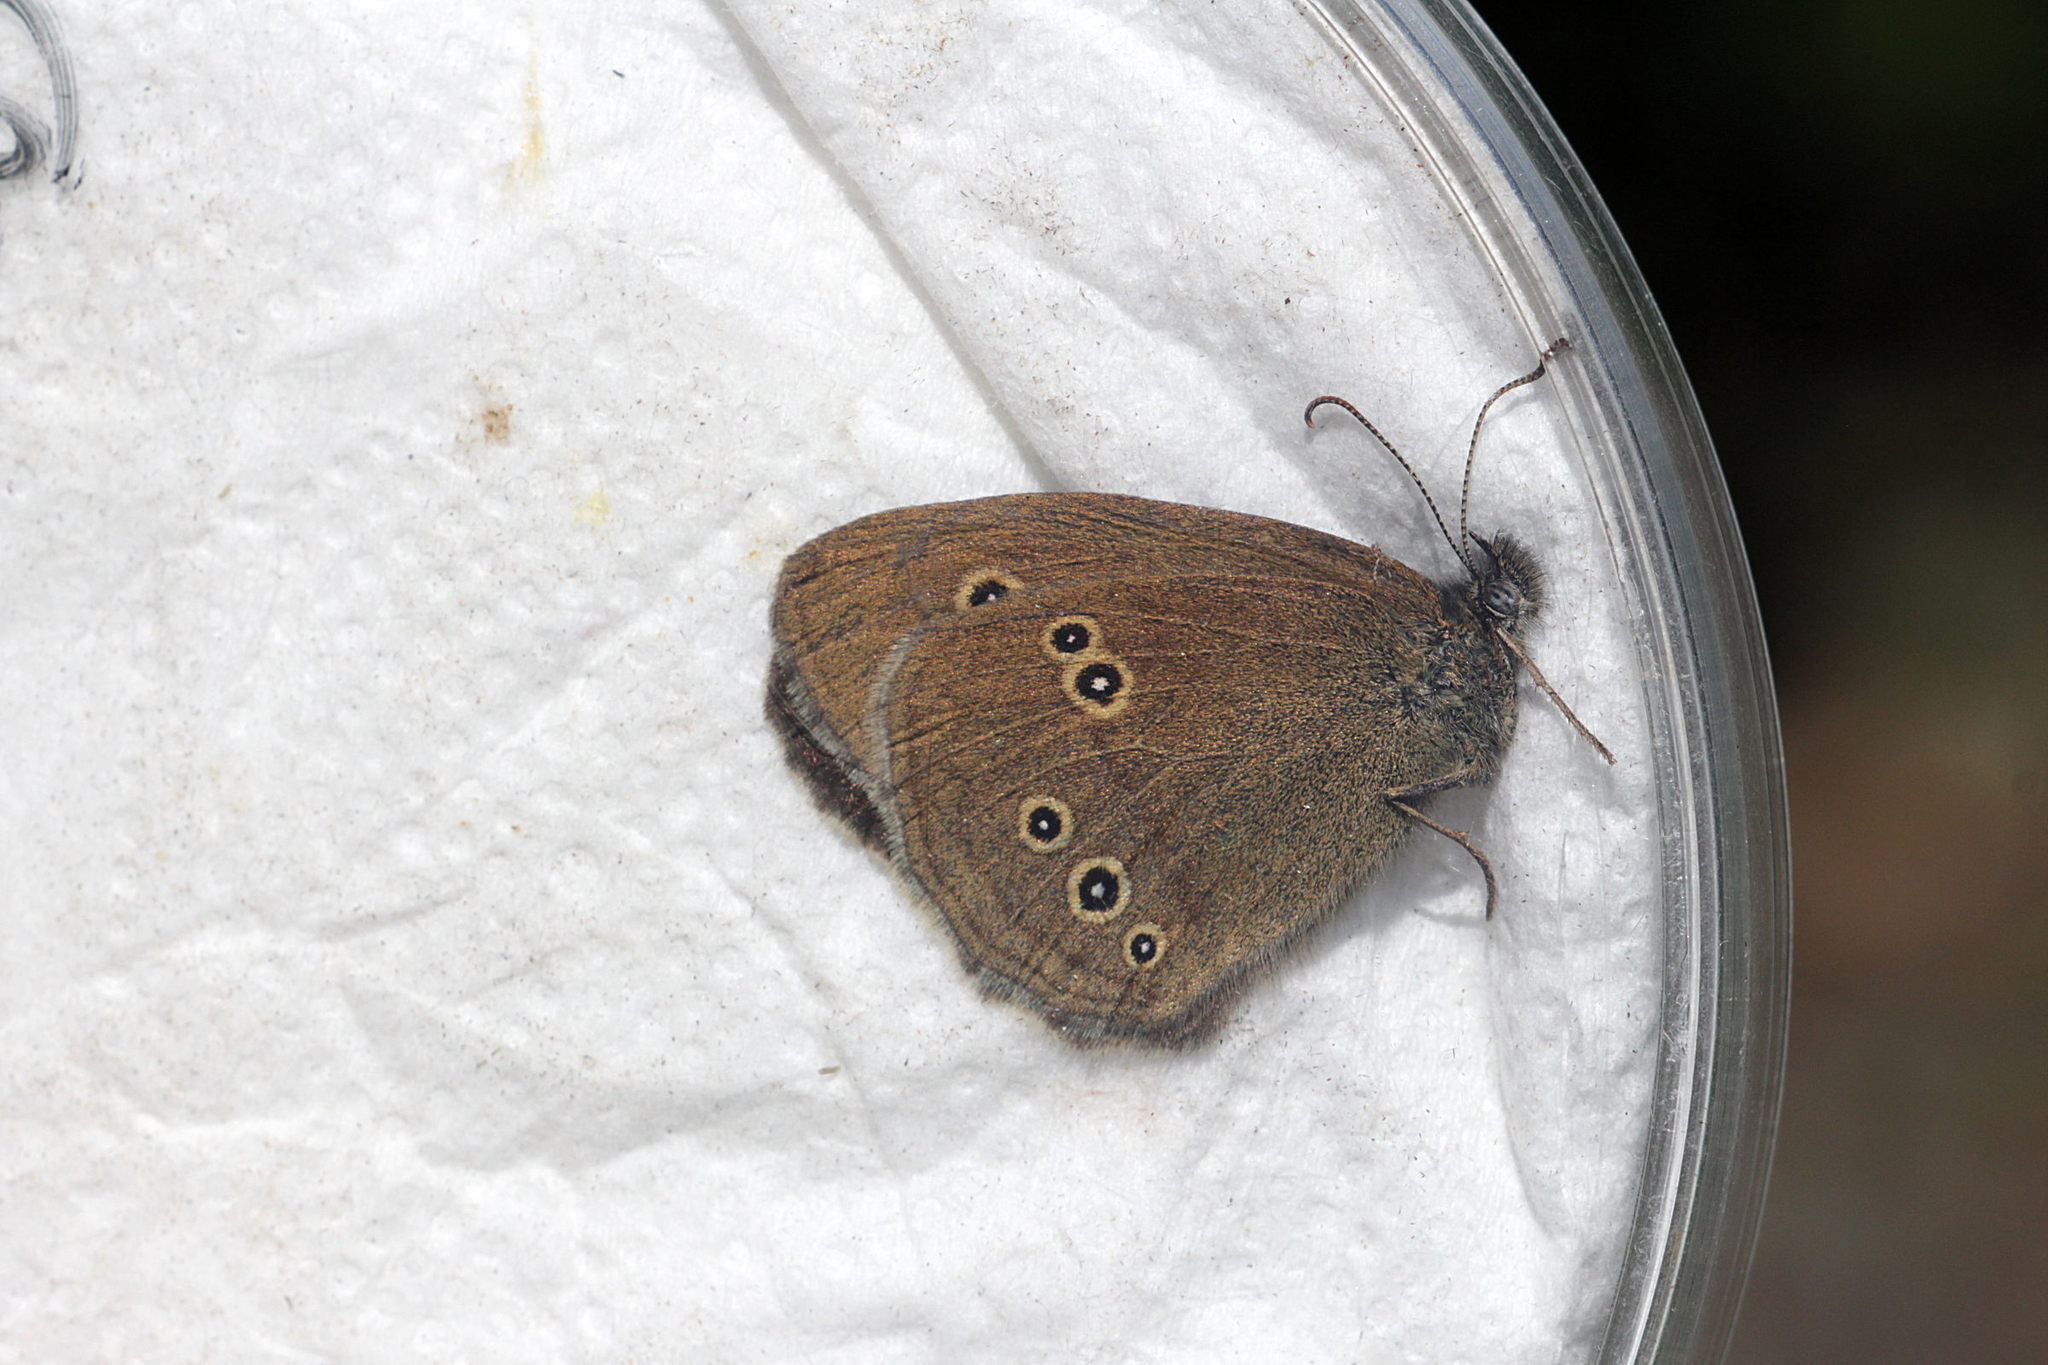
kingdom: Animalia
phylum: Arthropoda
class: Insecta
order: Lepidoptera
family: Nymphalidae
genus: Aphantopus
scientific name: Aphantopus hyperantus
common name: Ringlet
